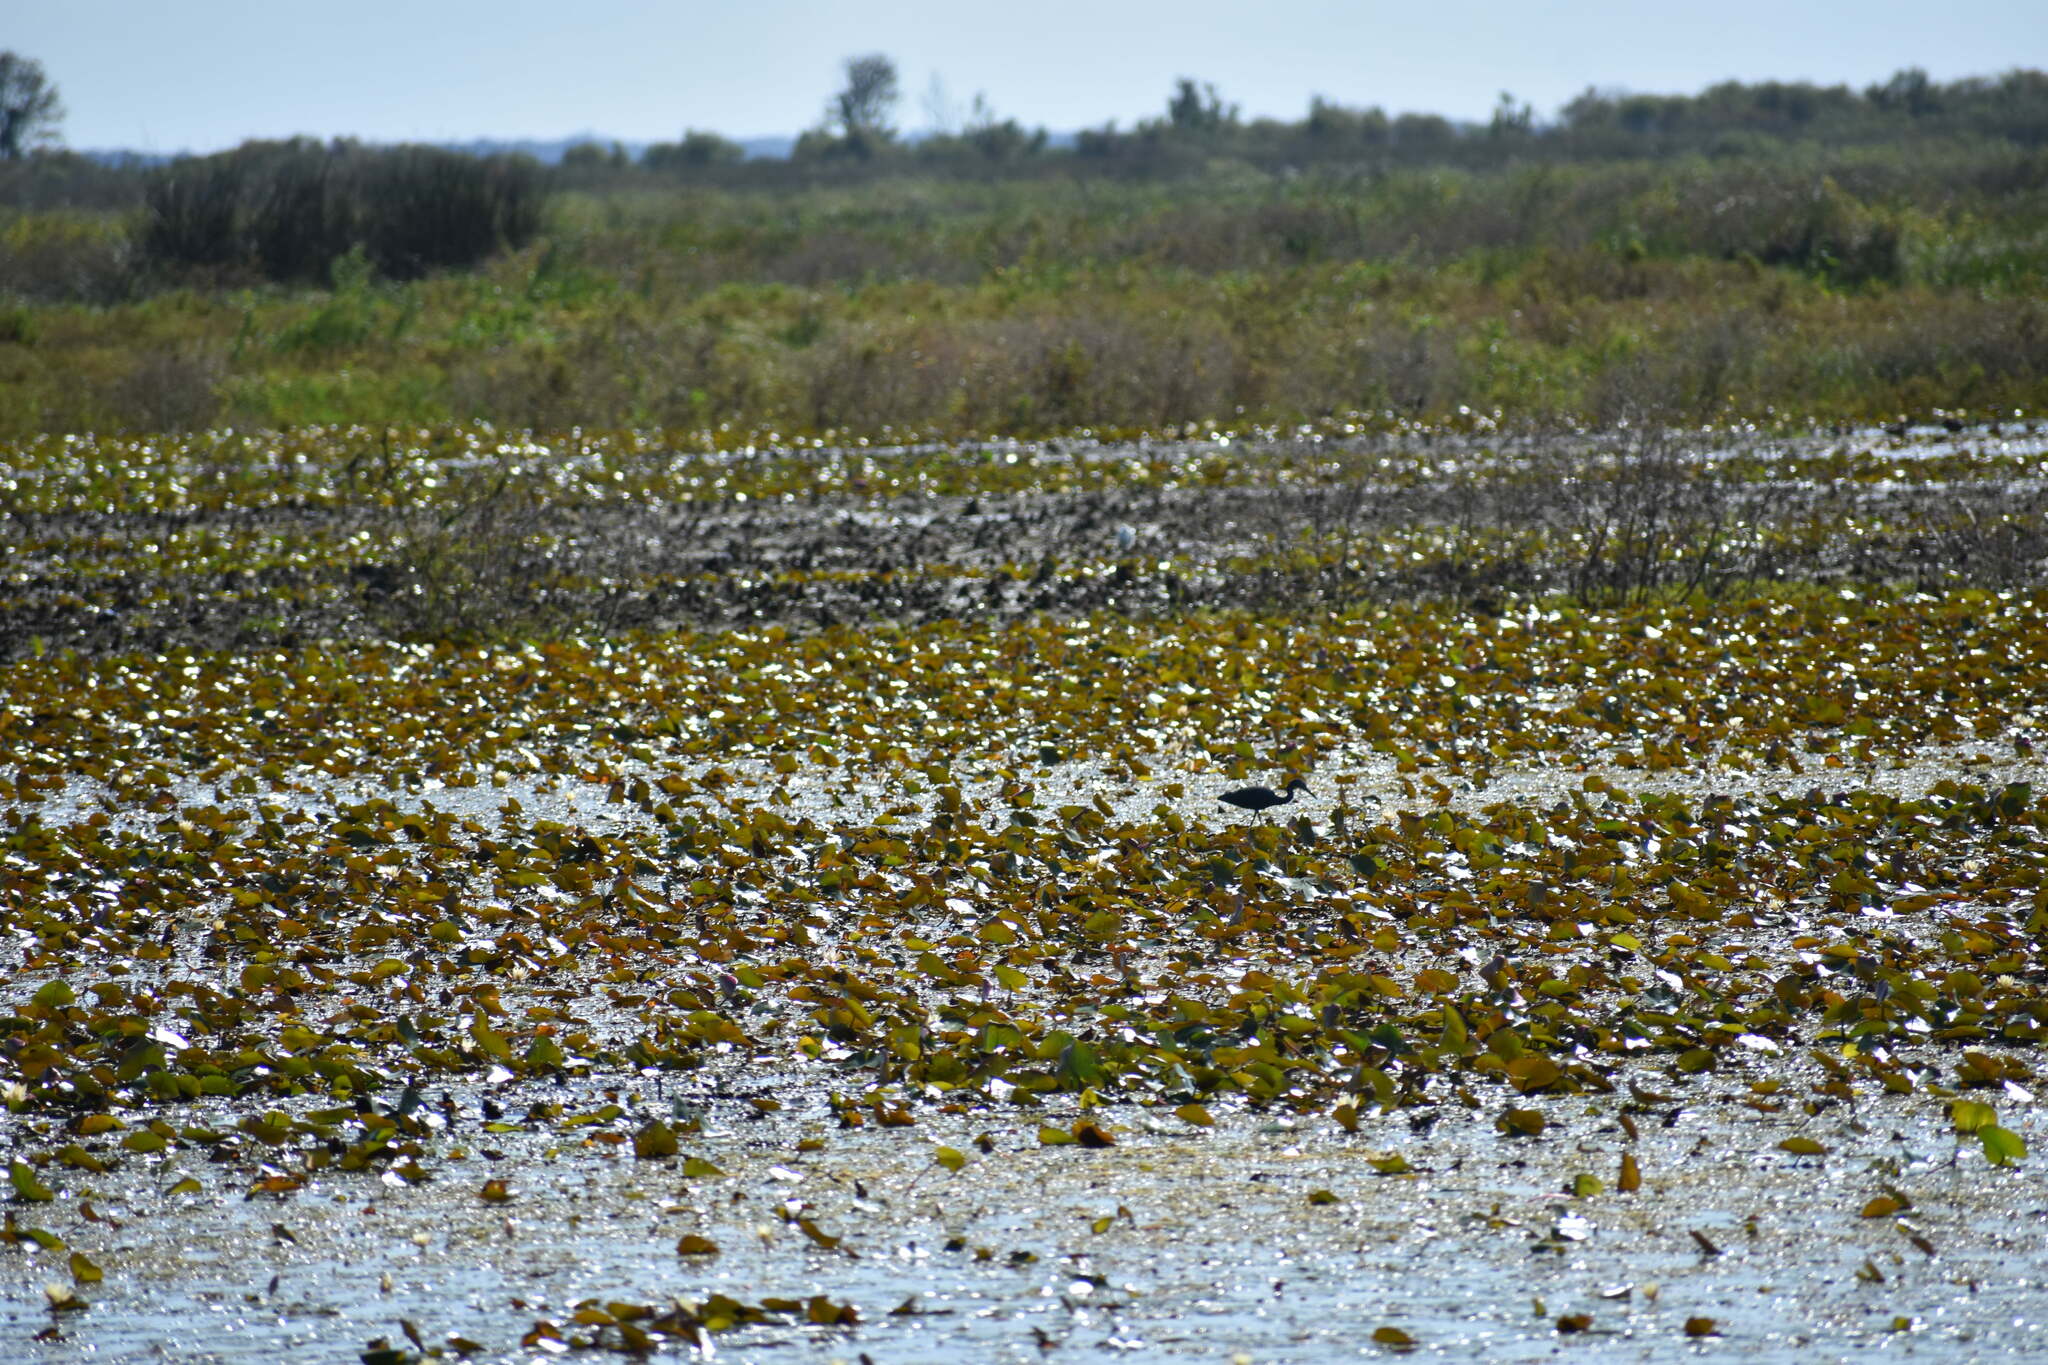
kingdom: Animalia
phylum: Chordata
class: Aves
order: Pelecaniformes
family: Ardeidae
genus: Egretta
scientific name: Egretta caerulea
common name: Little blue heron
